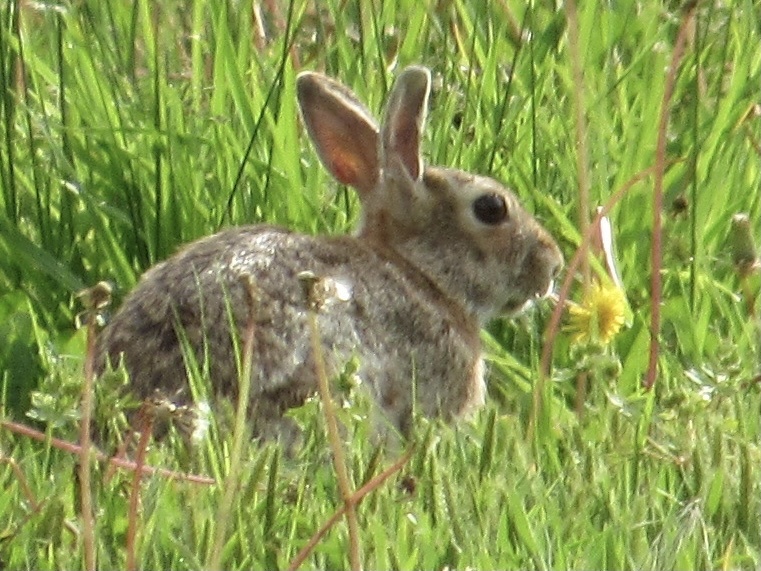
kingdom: Animalia
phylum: Chordata
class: Mammalia
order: Lagomorpha
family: Leporidae
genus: Sylvilagus
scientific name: Sylvilagus floridanus
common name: Eastern cottontail
